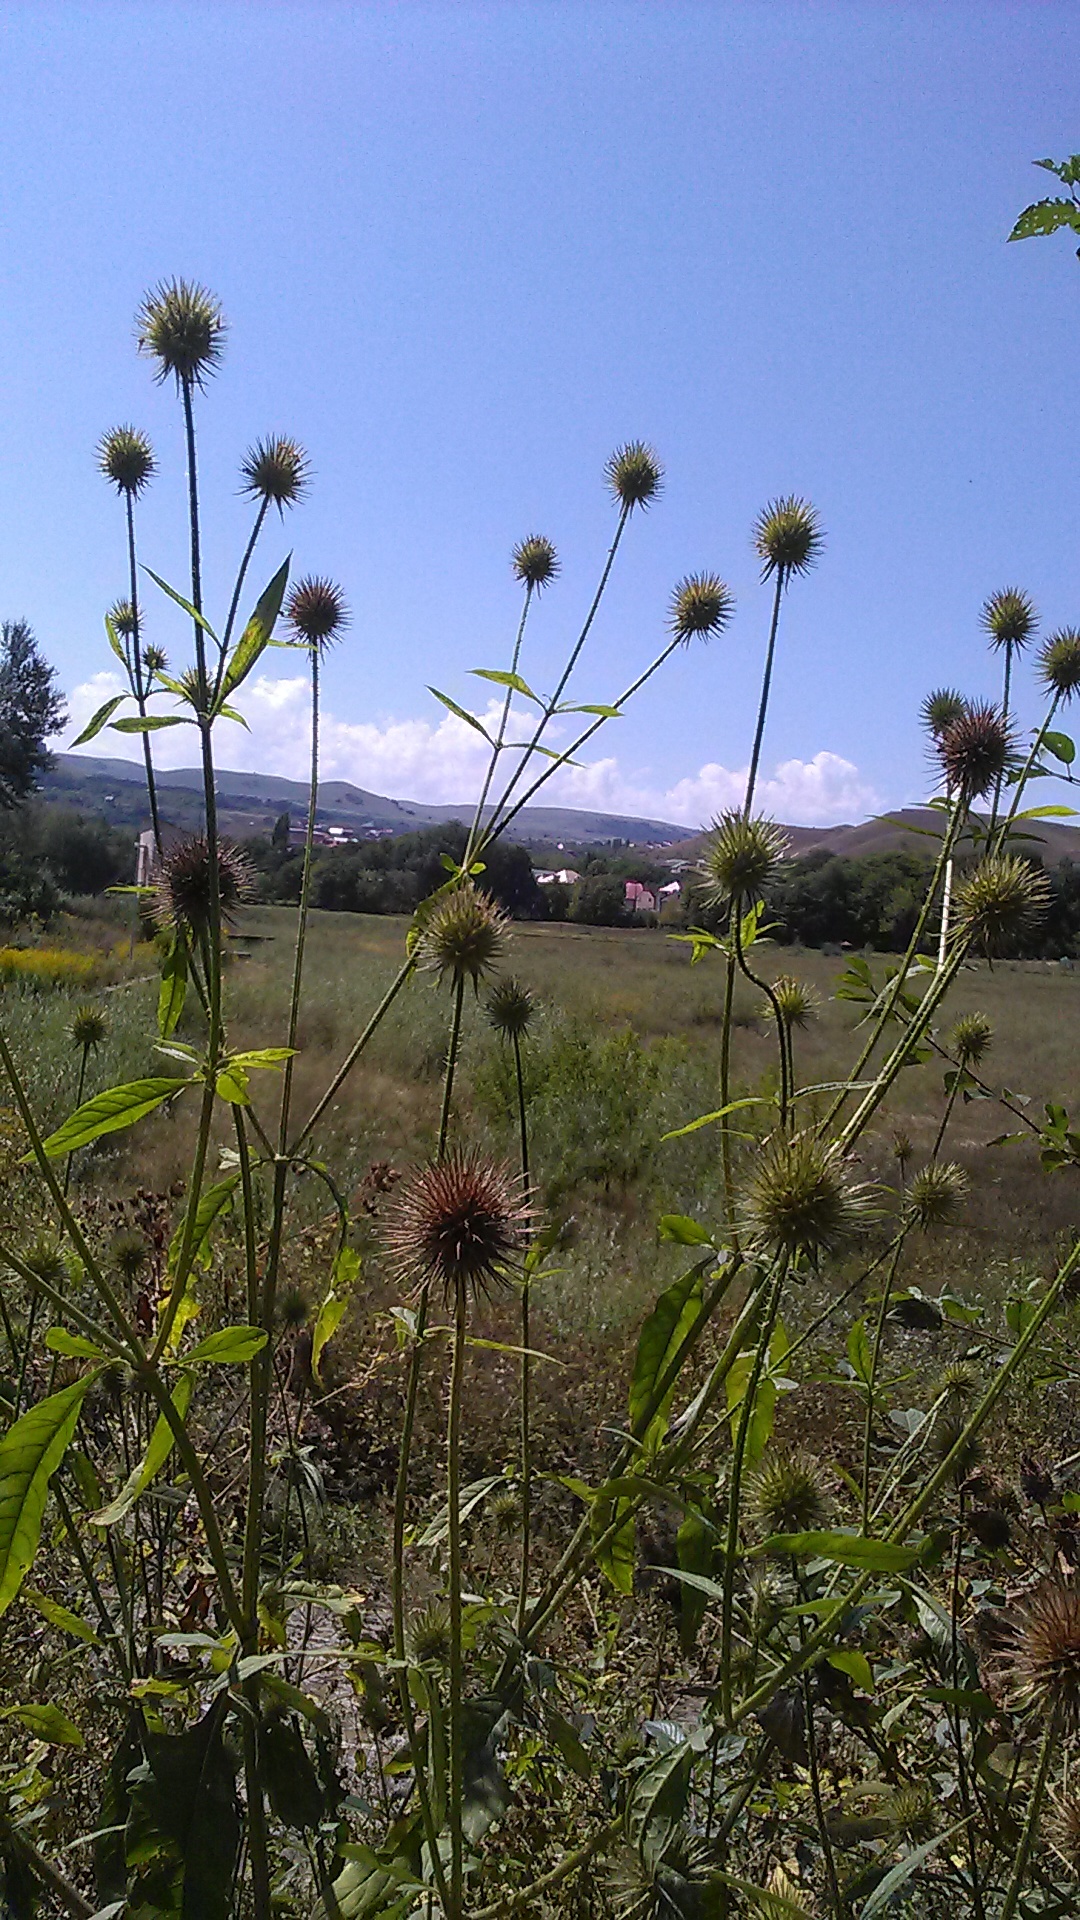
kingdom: Plantae
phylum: Tracheophyta
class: Magnoliopsida
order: Dipsacales
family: Caprifoliaceae
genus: Dipsacus
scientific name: Dipsacus strigosus
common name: Yellow-flowered teasel
